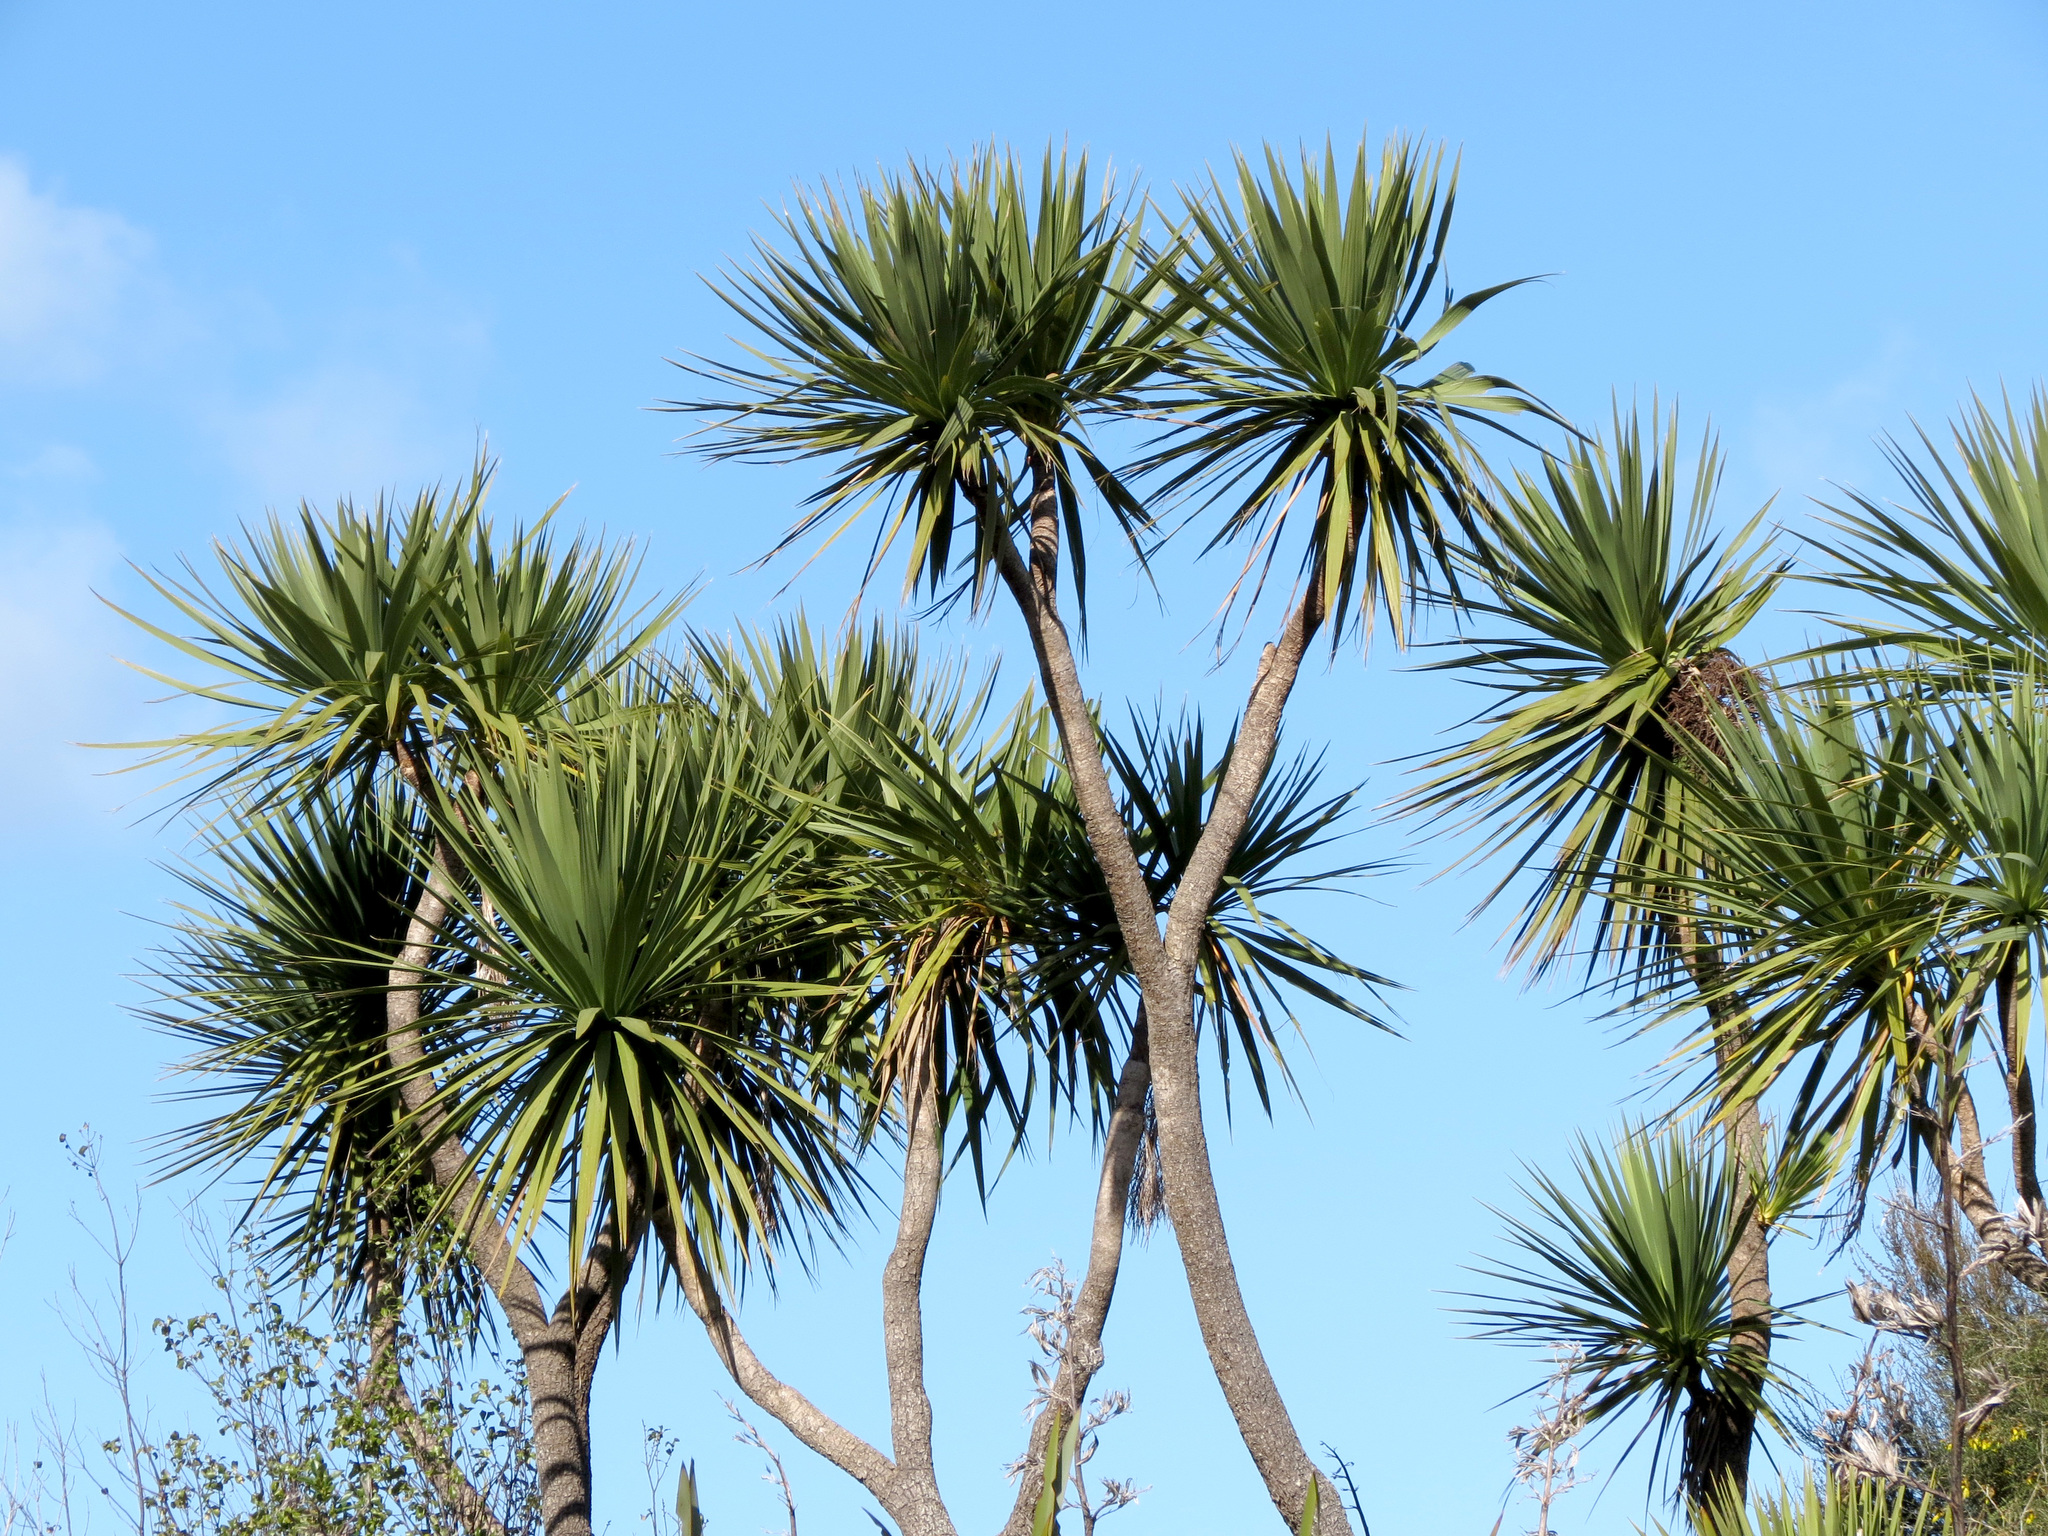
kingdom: Plantae
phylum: Tracheophyta
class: Liliopsida
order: Asparagales
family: Asparagaceae
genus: Cordyline
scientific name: Cordyline australis
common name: Cabbage-palm
